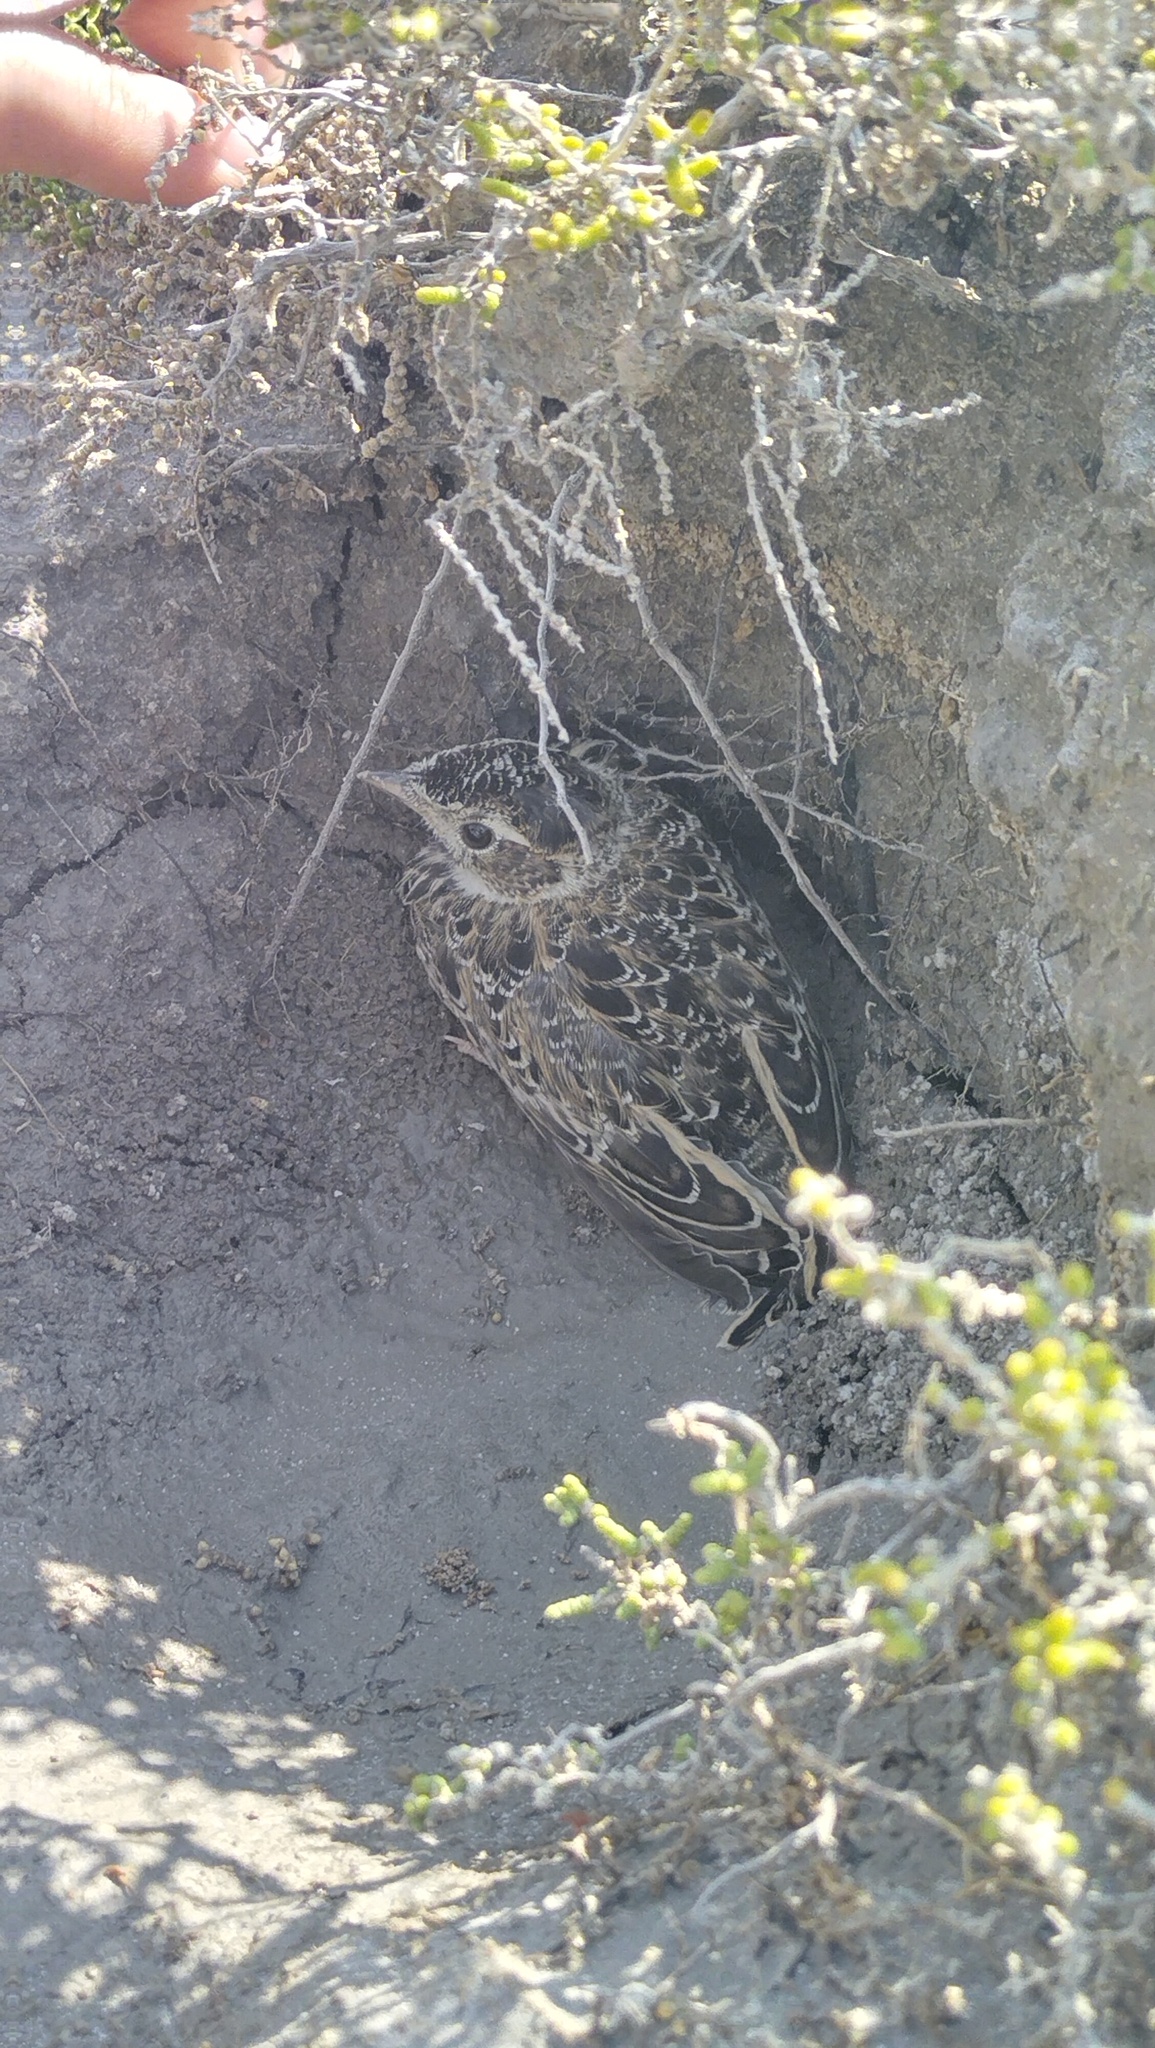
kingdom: Animalia
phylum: Chordata
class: Aves
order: Passeriformes
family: Alaudidae
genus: Alauda
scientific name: Alauda arvensis
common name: Eurasian skylark
